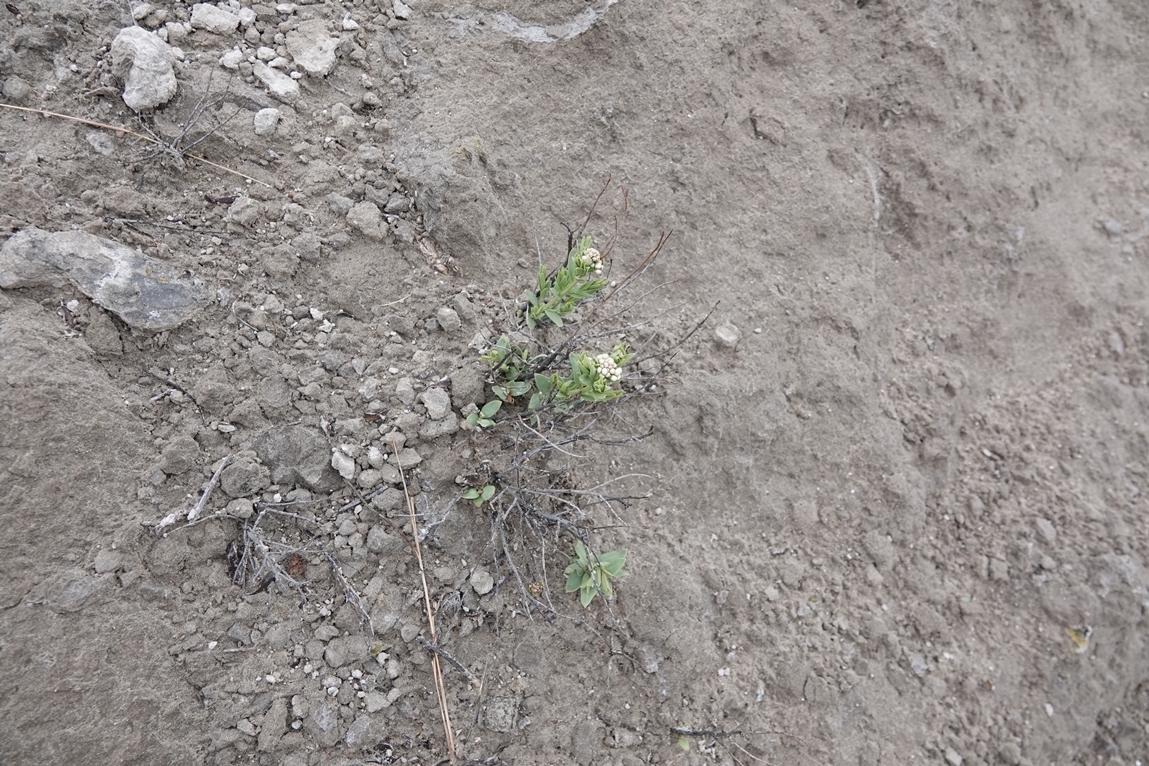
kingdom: Plantae
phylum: Tracheophyta
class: Magnoliopsida
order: Santalales
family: Comandraceae
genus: Comandra
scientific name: Comandra umbellata
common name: Bastard toadflax
